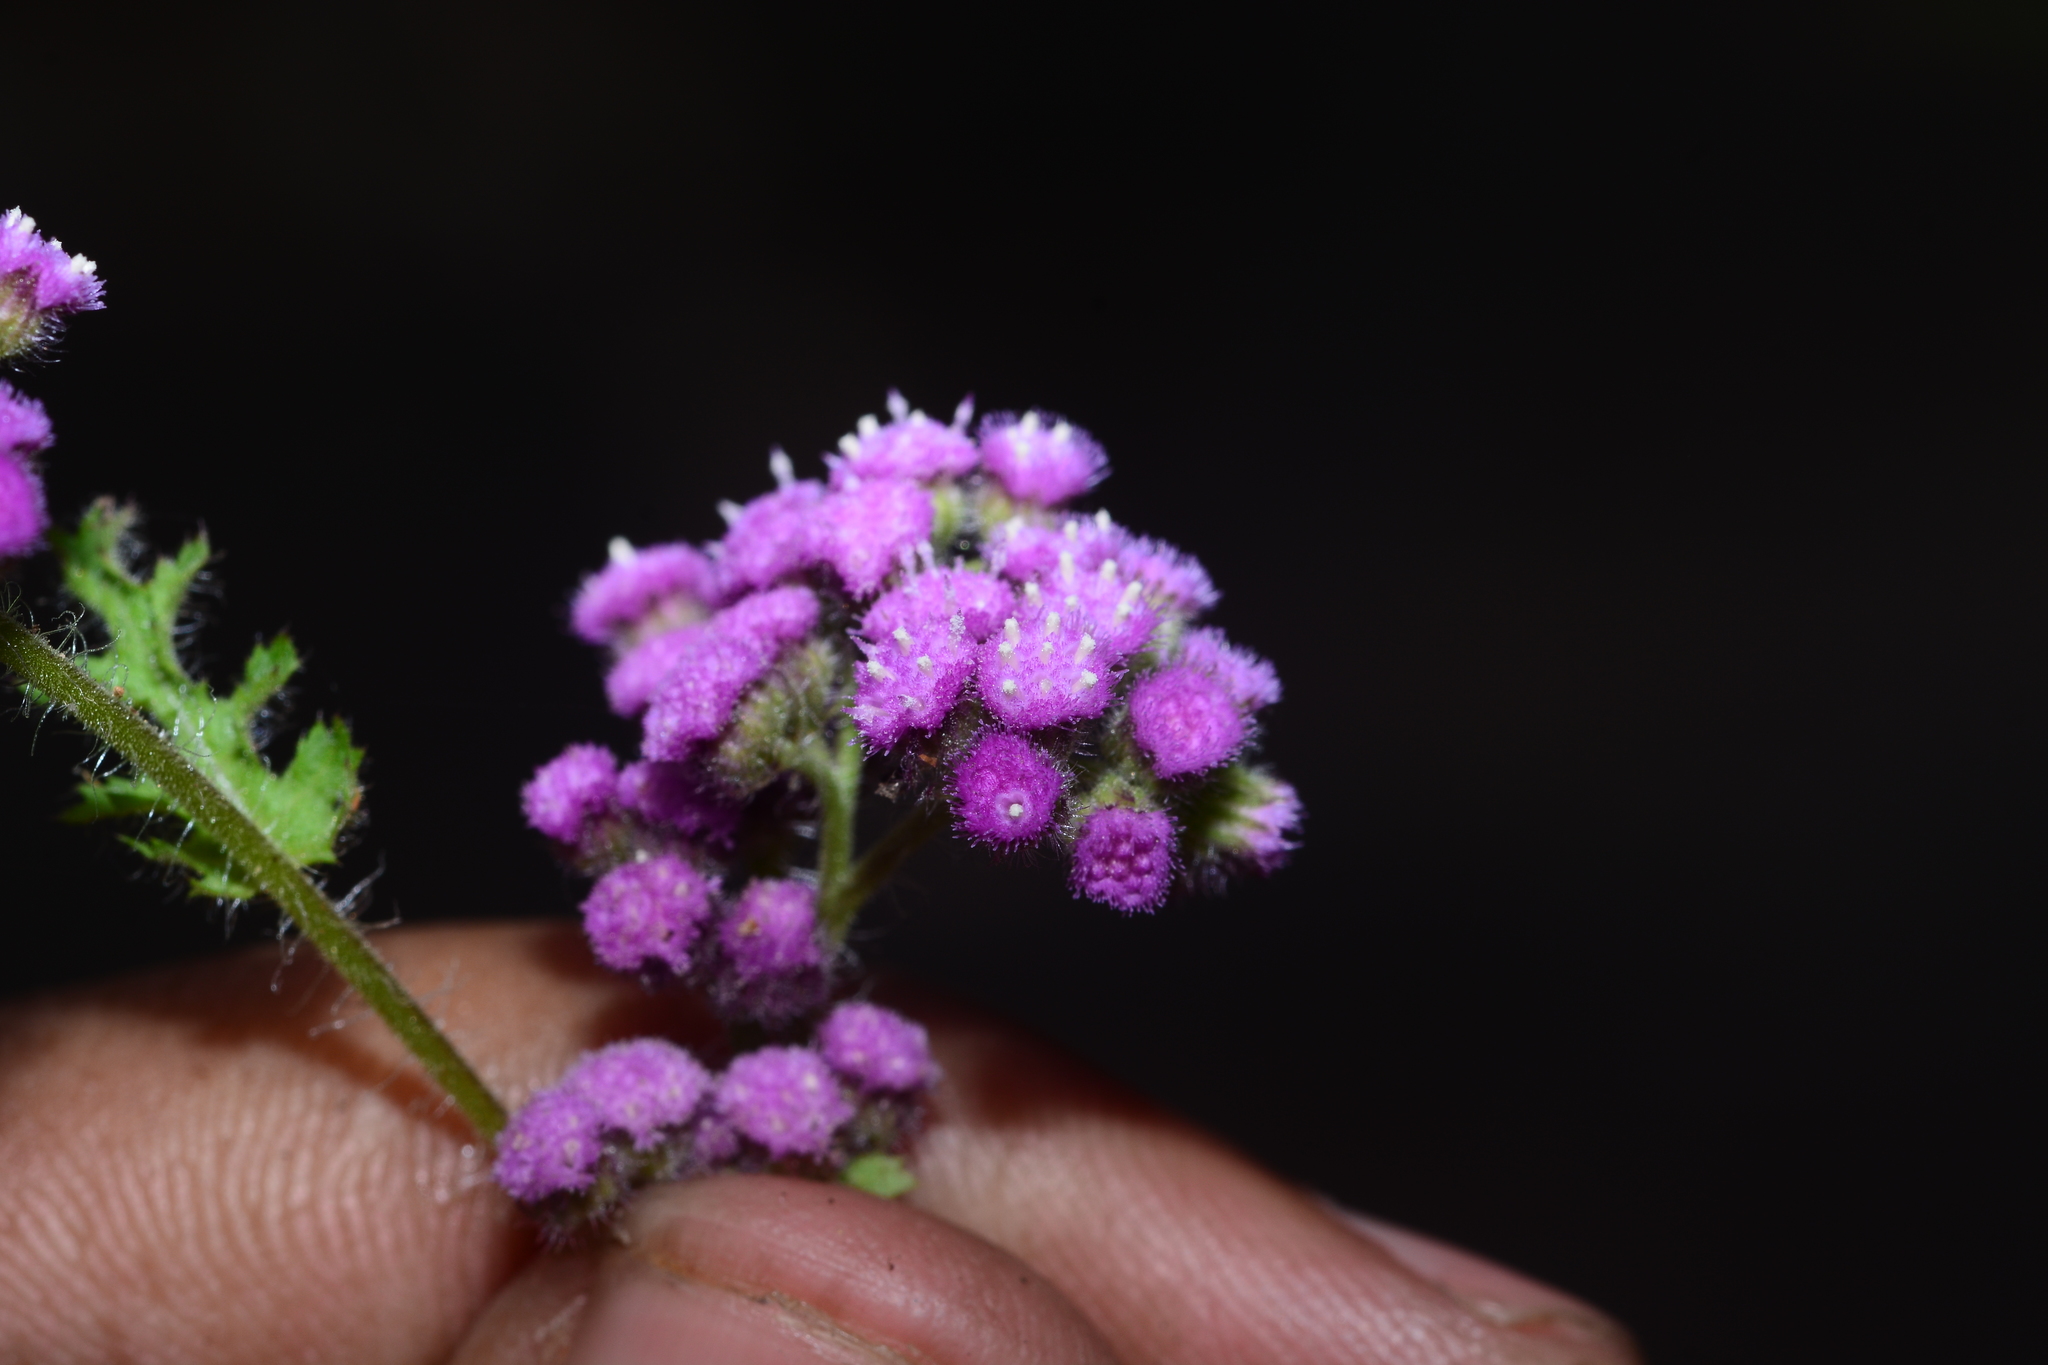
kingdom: Plantae
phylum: Tracheophyta
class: Magnoliopsida
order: Asterales
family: Asteraceae
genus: Cyathocline
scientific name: Cyathocline purpurea
